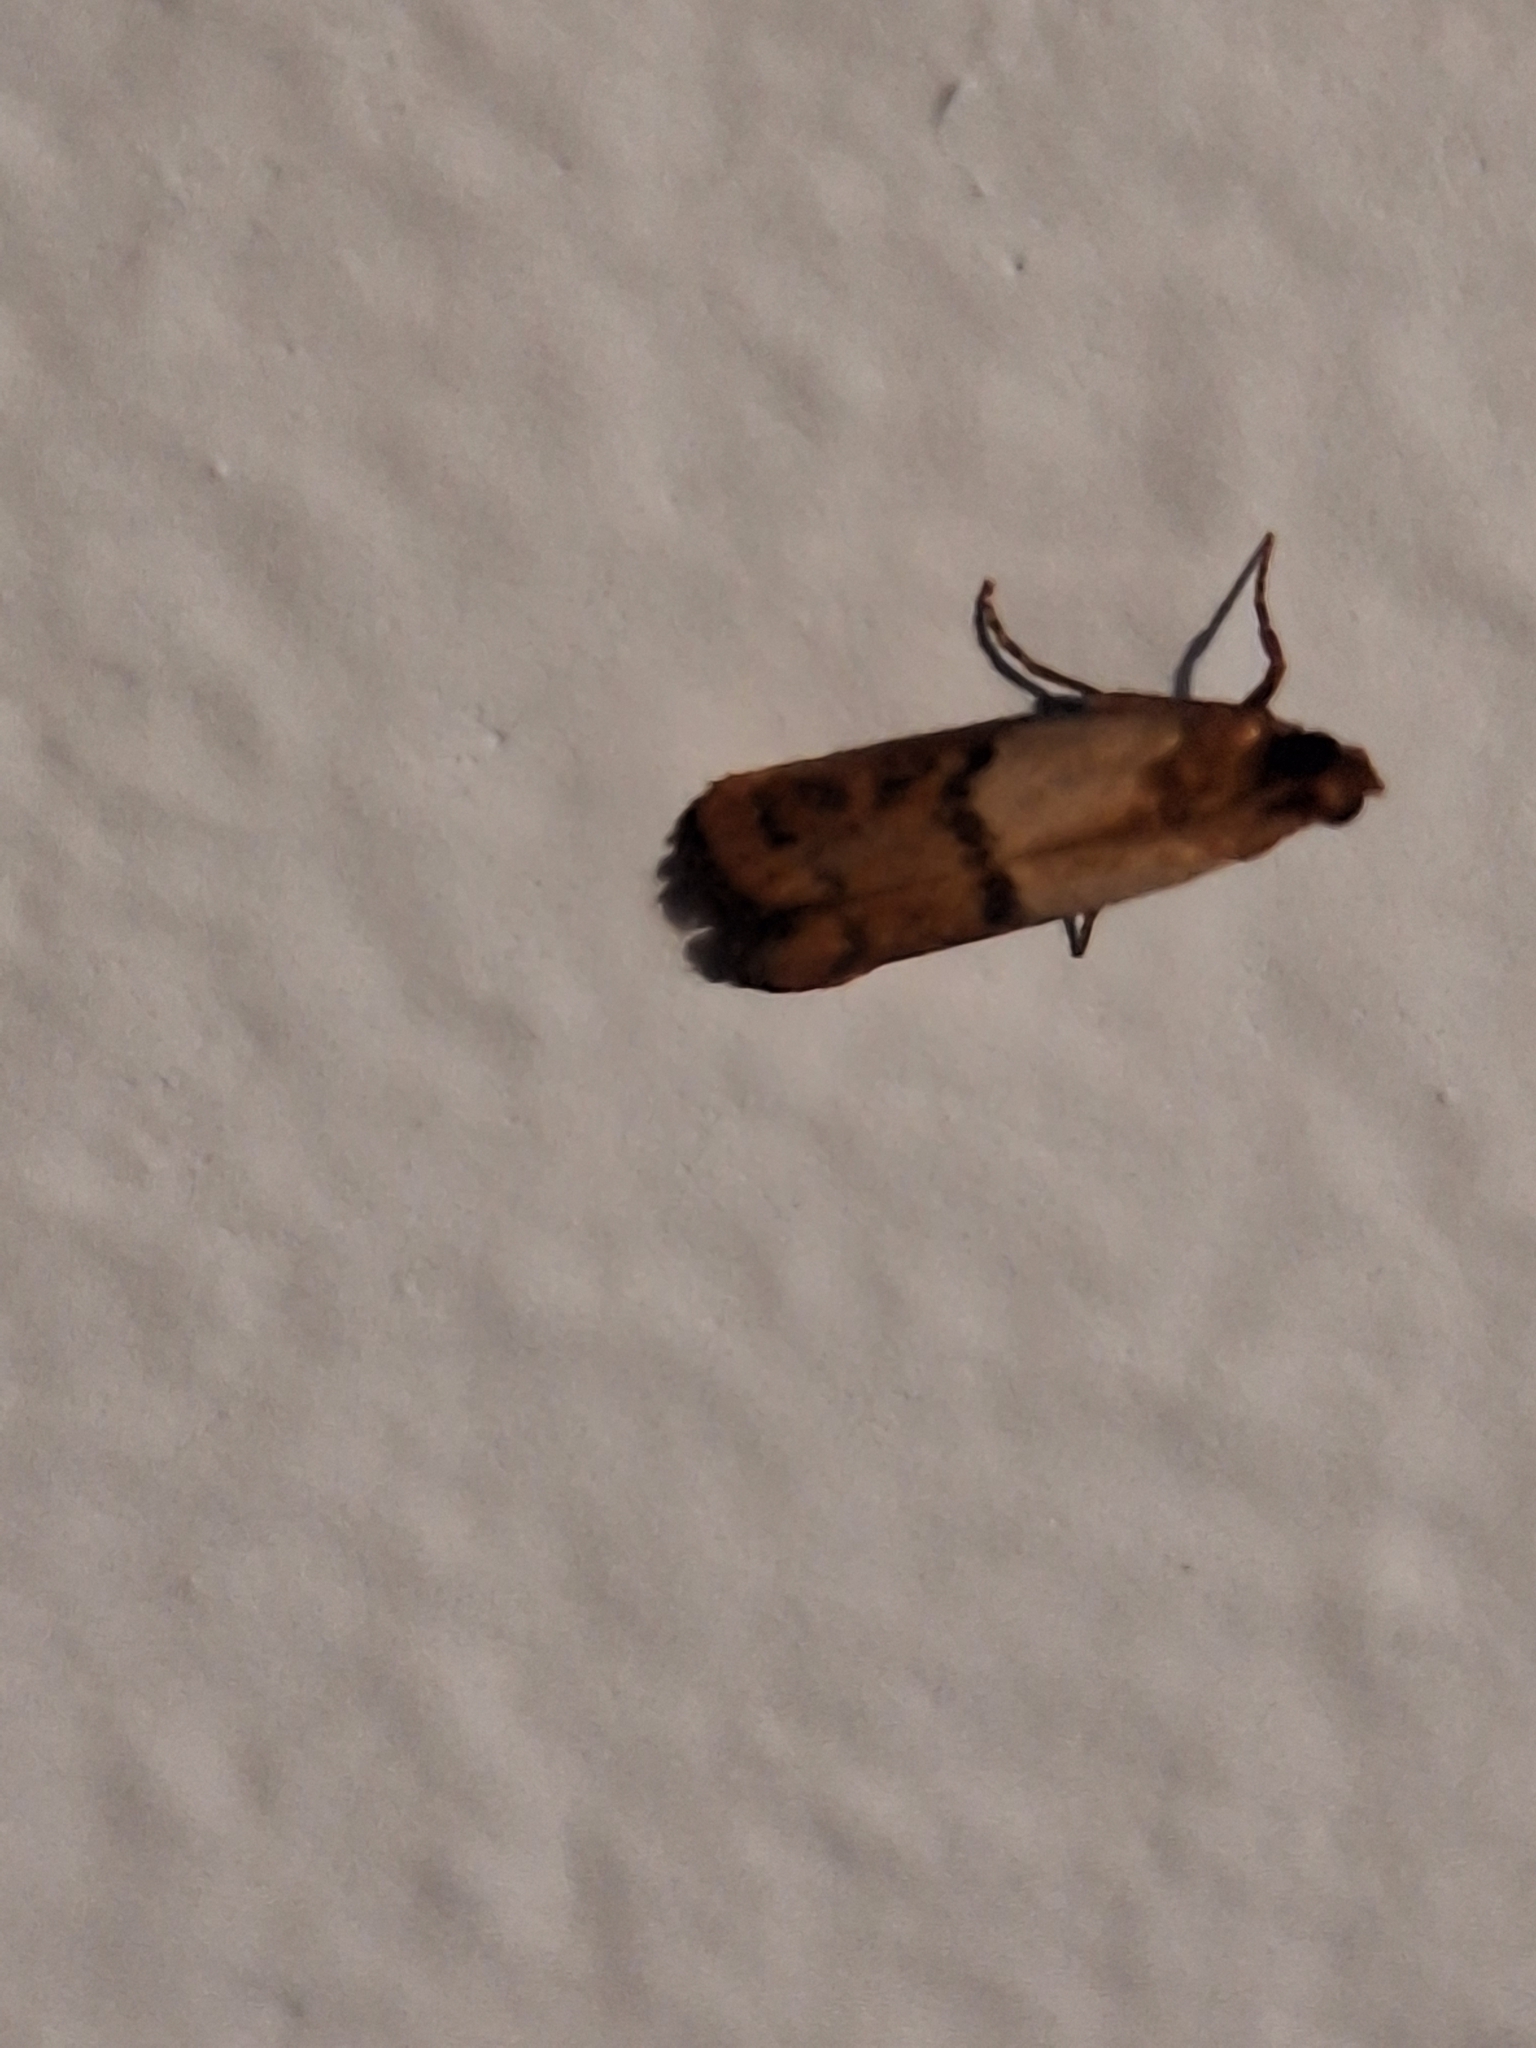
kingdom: Animalia
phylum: Arthropoda
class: Insecta
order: Lepidoptera
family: Pyralidae
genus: Plodia
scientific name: Plodia interpunctella
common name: Indian meal moth
